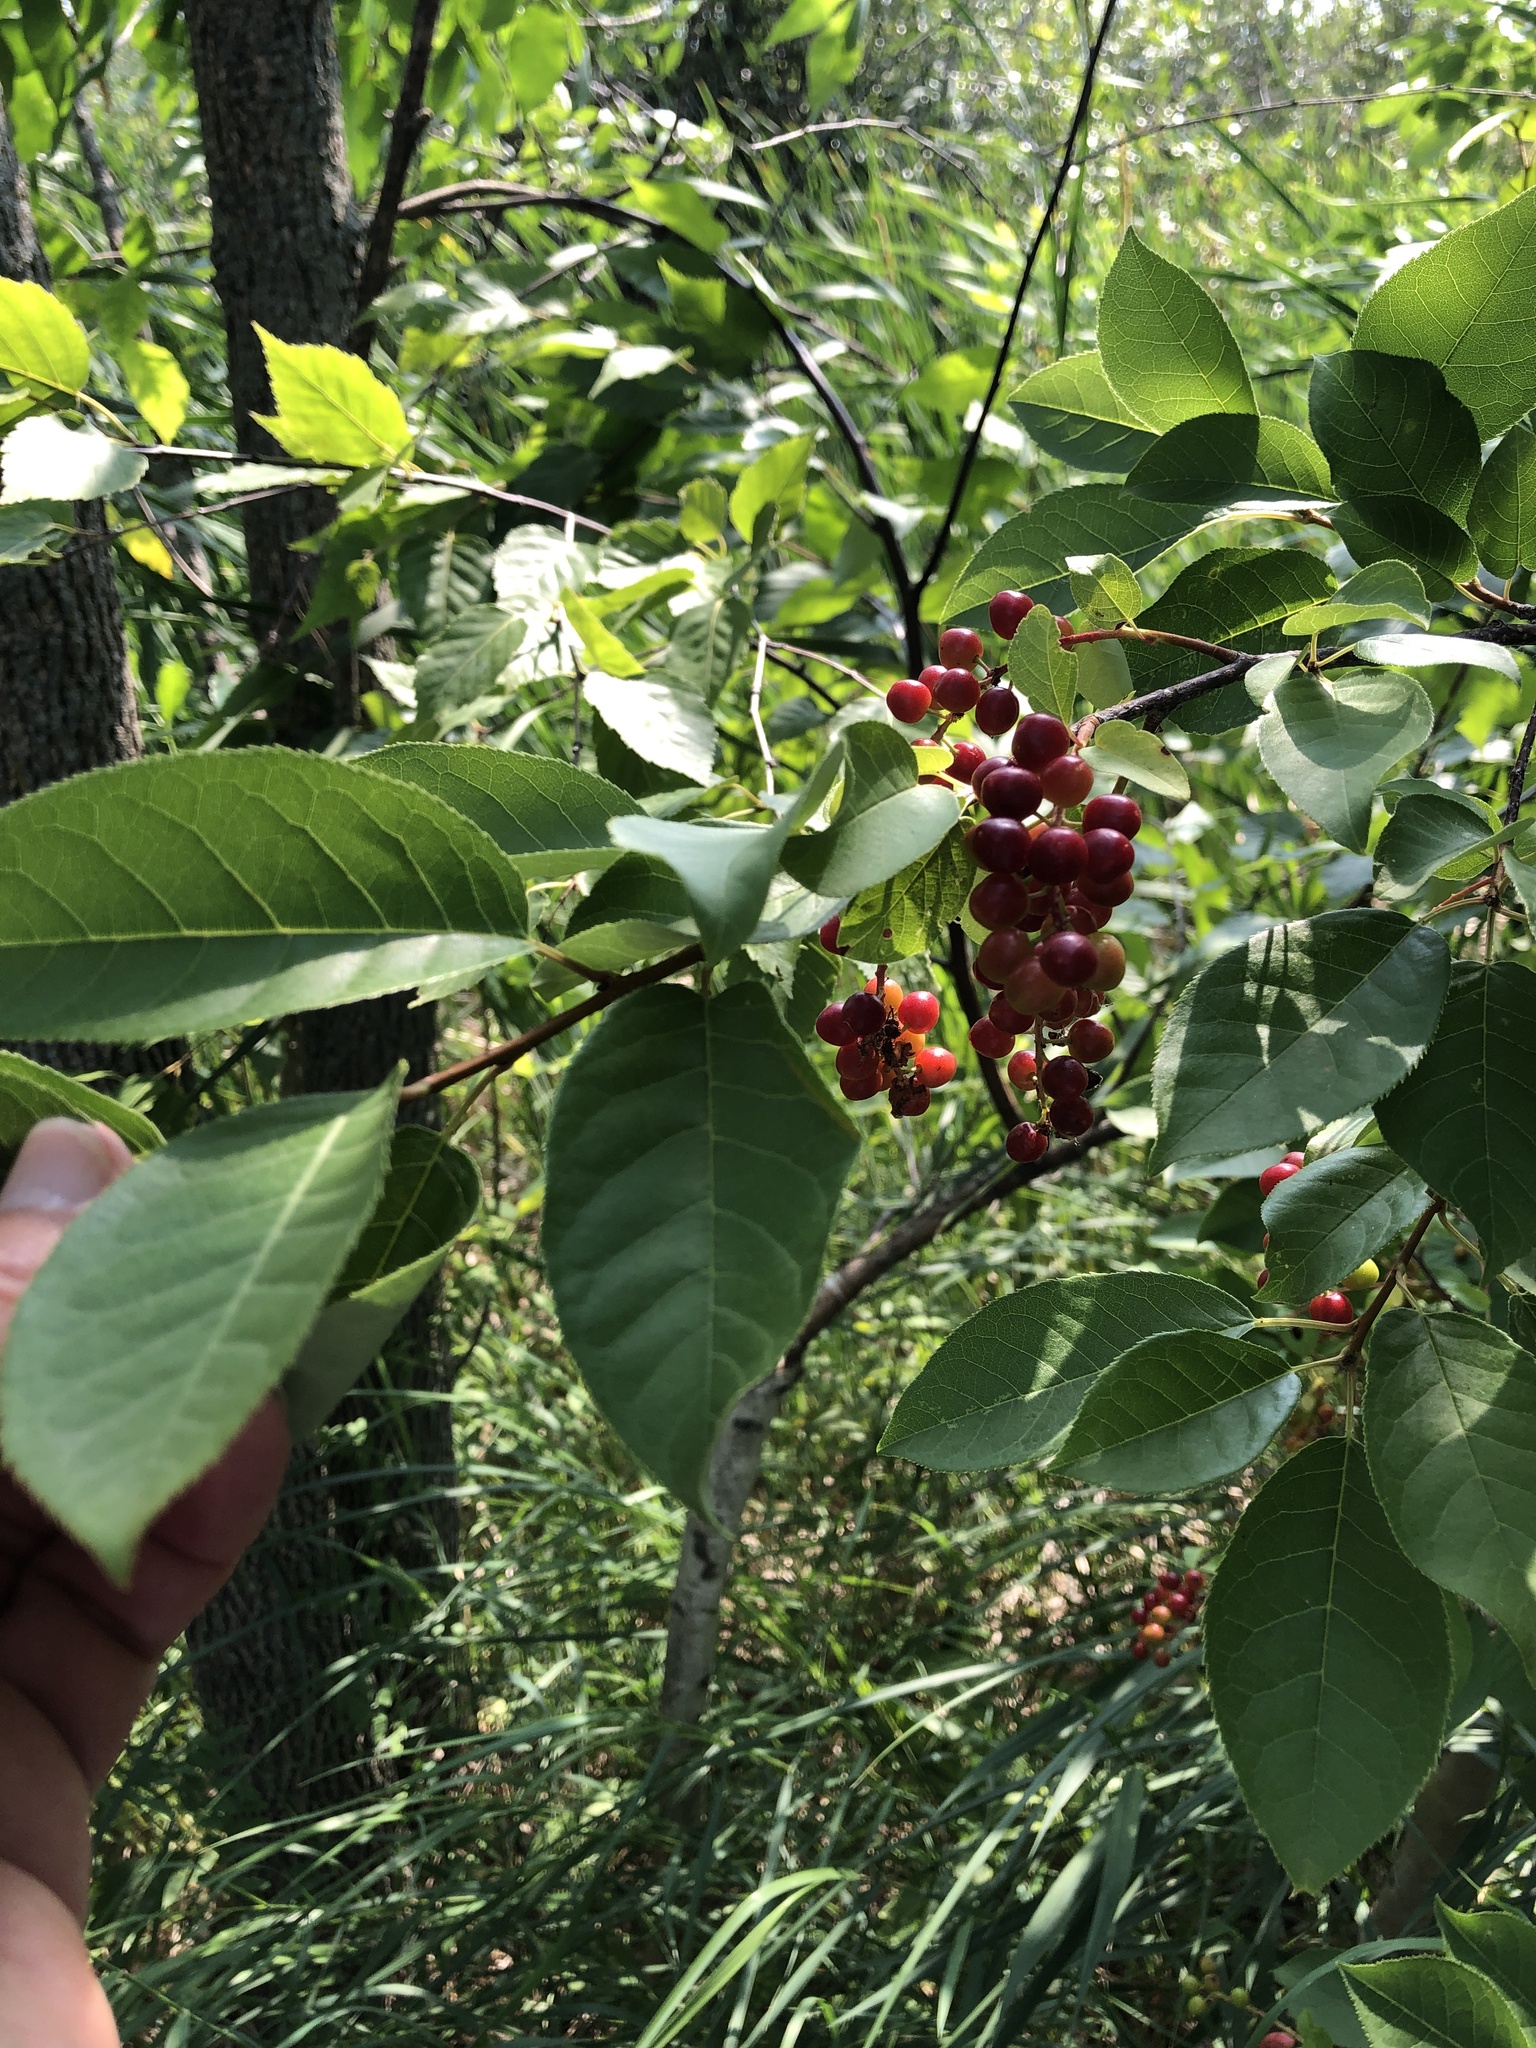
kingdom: Plantae
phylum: Tracheophyta
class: Magnoliopsida
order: Rosales
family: Rosaceae
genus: Prunus
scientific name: Prunus virginiana
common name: Chokecherry
